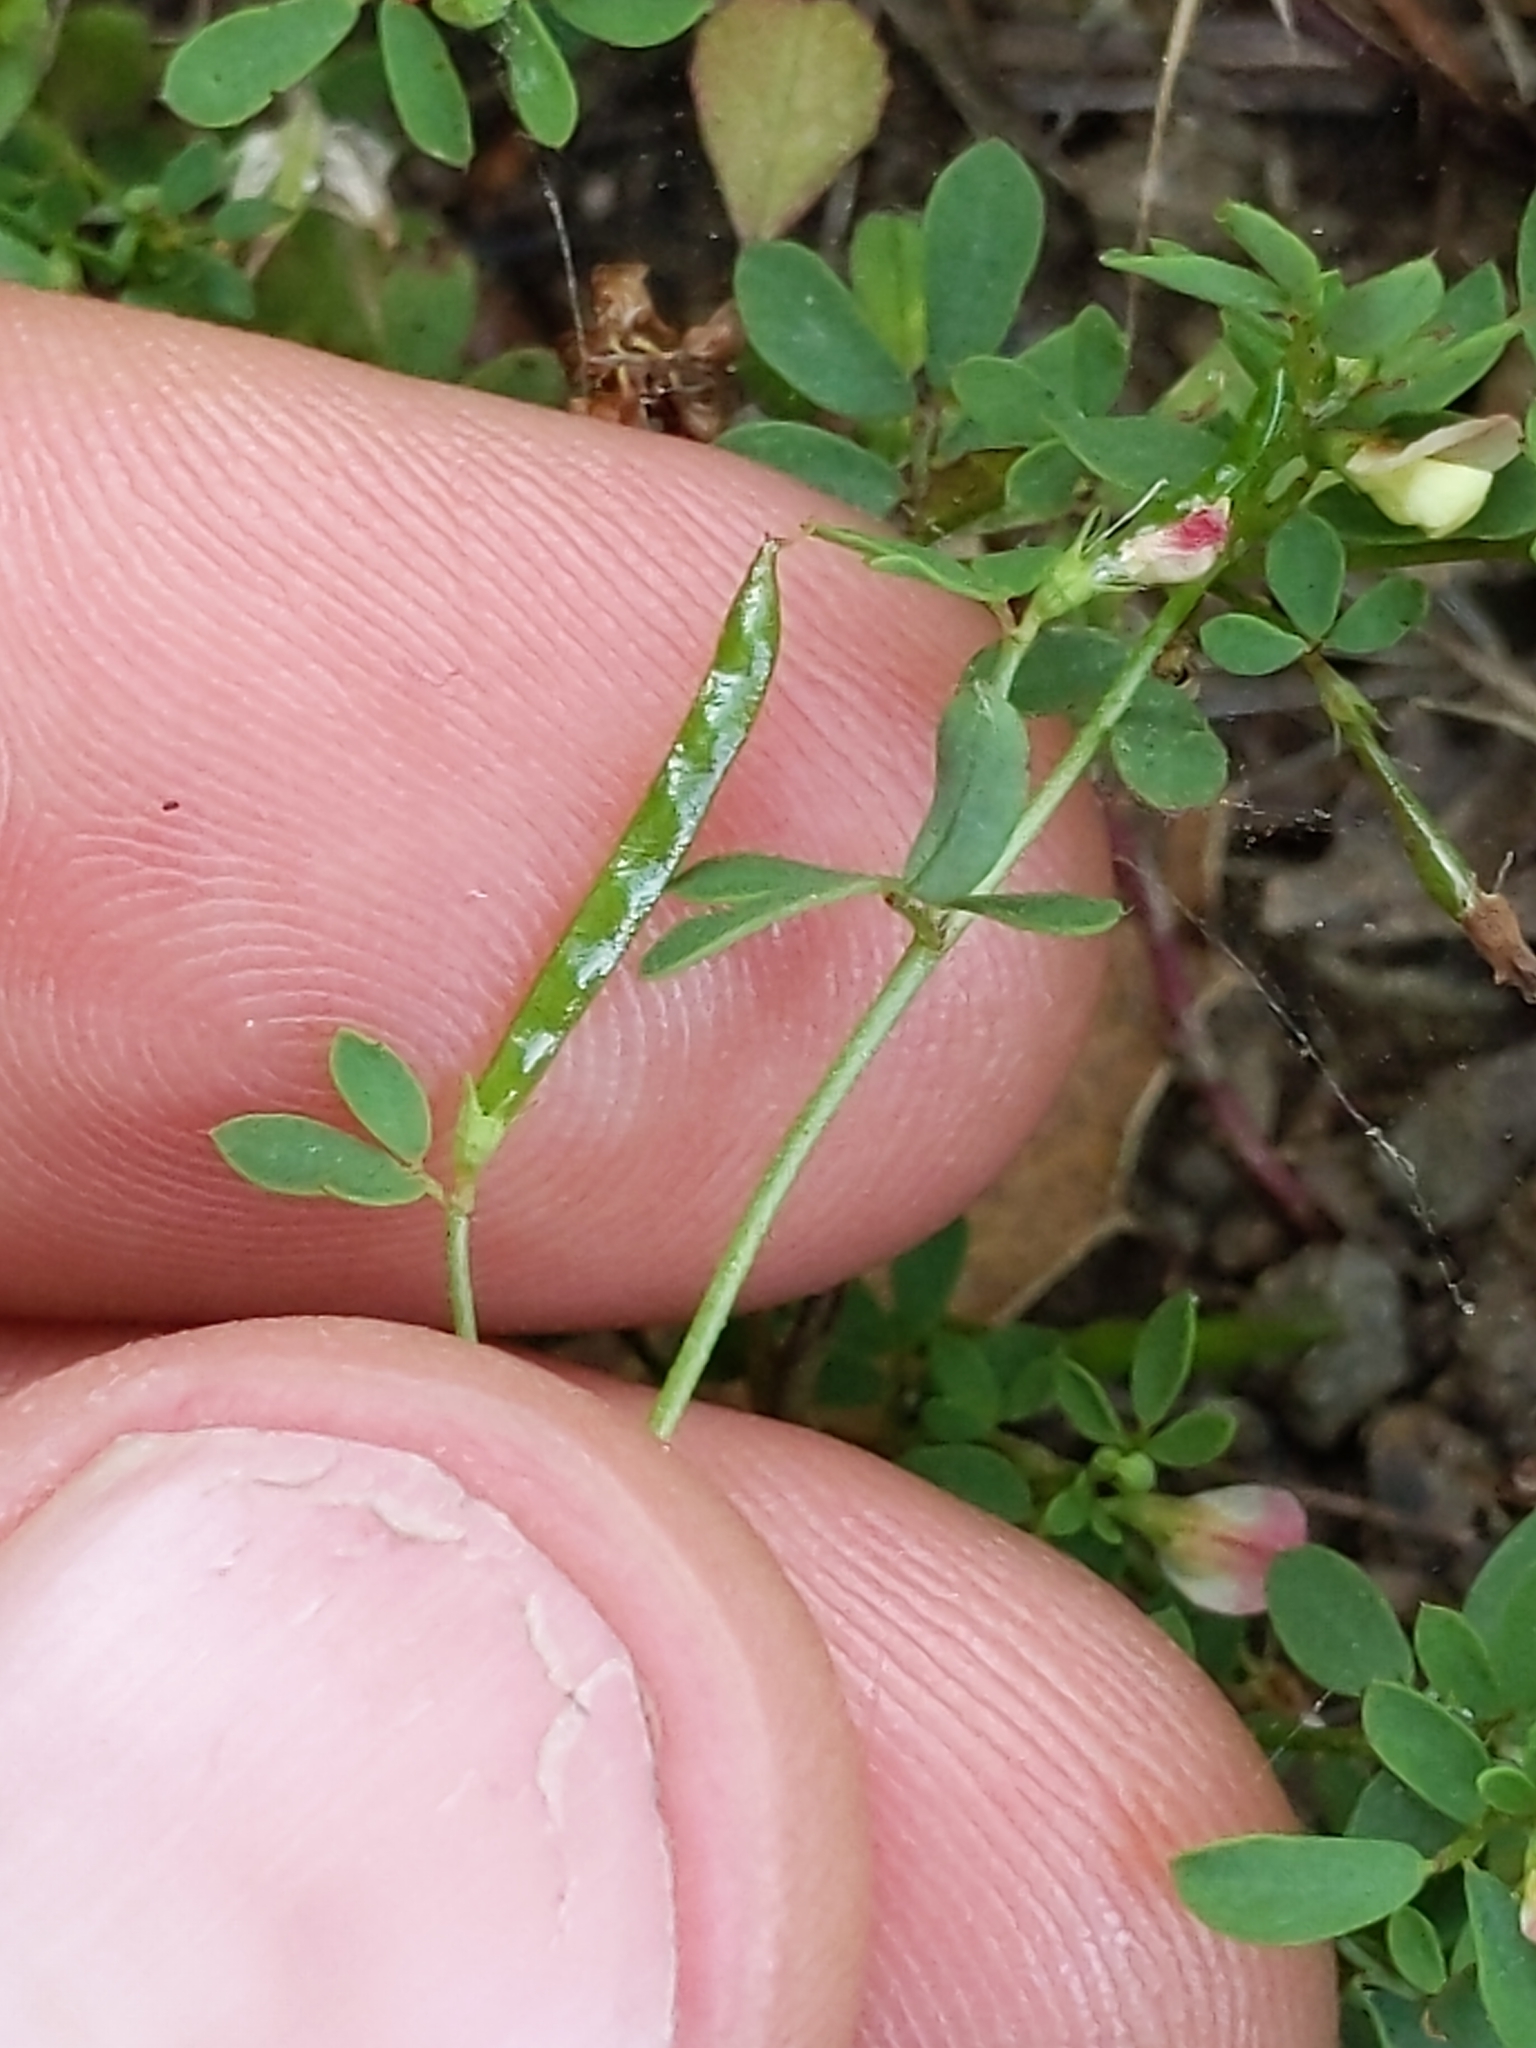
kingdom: Plantae
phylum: Tracheophyta
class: Magnoliopsida
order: Fabales
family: Fabaceae
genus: Acmispon
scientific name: Acmispon parviflorus
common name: Desert deer-vetch
